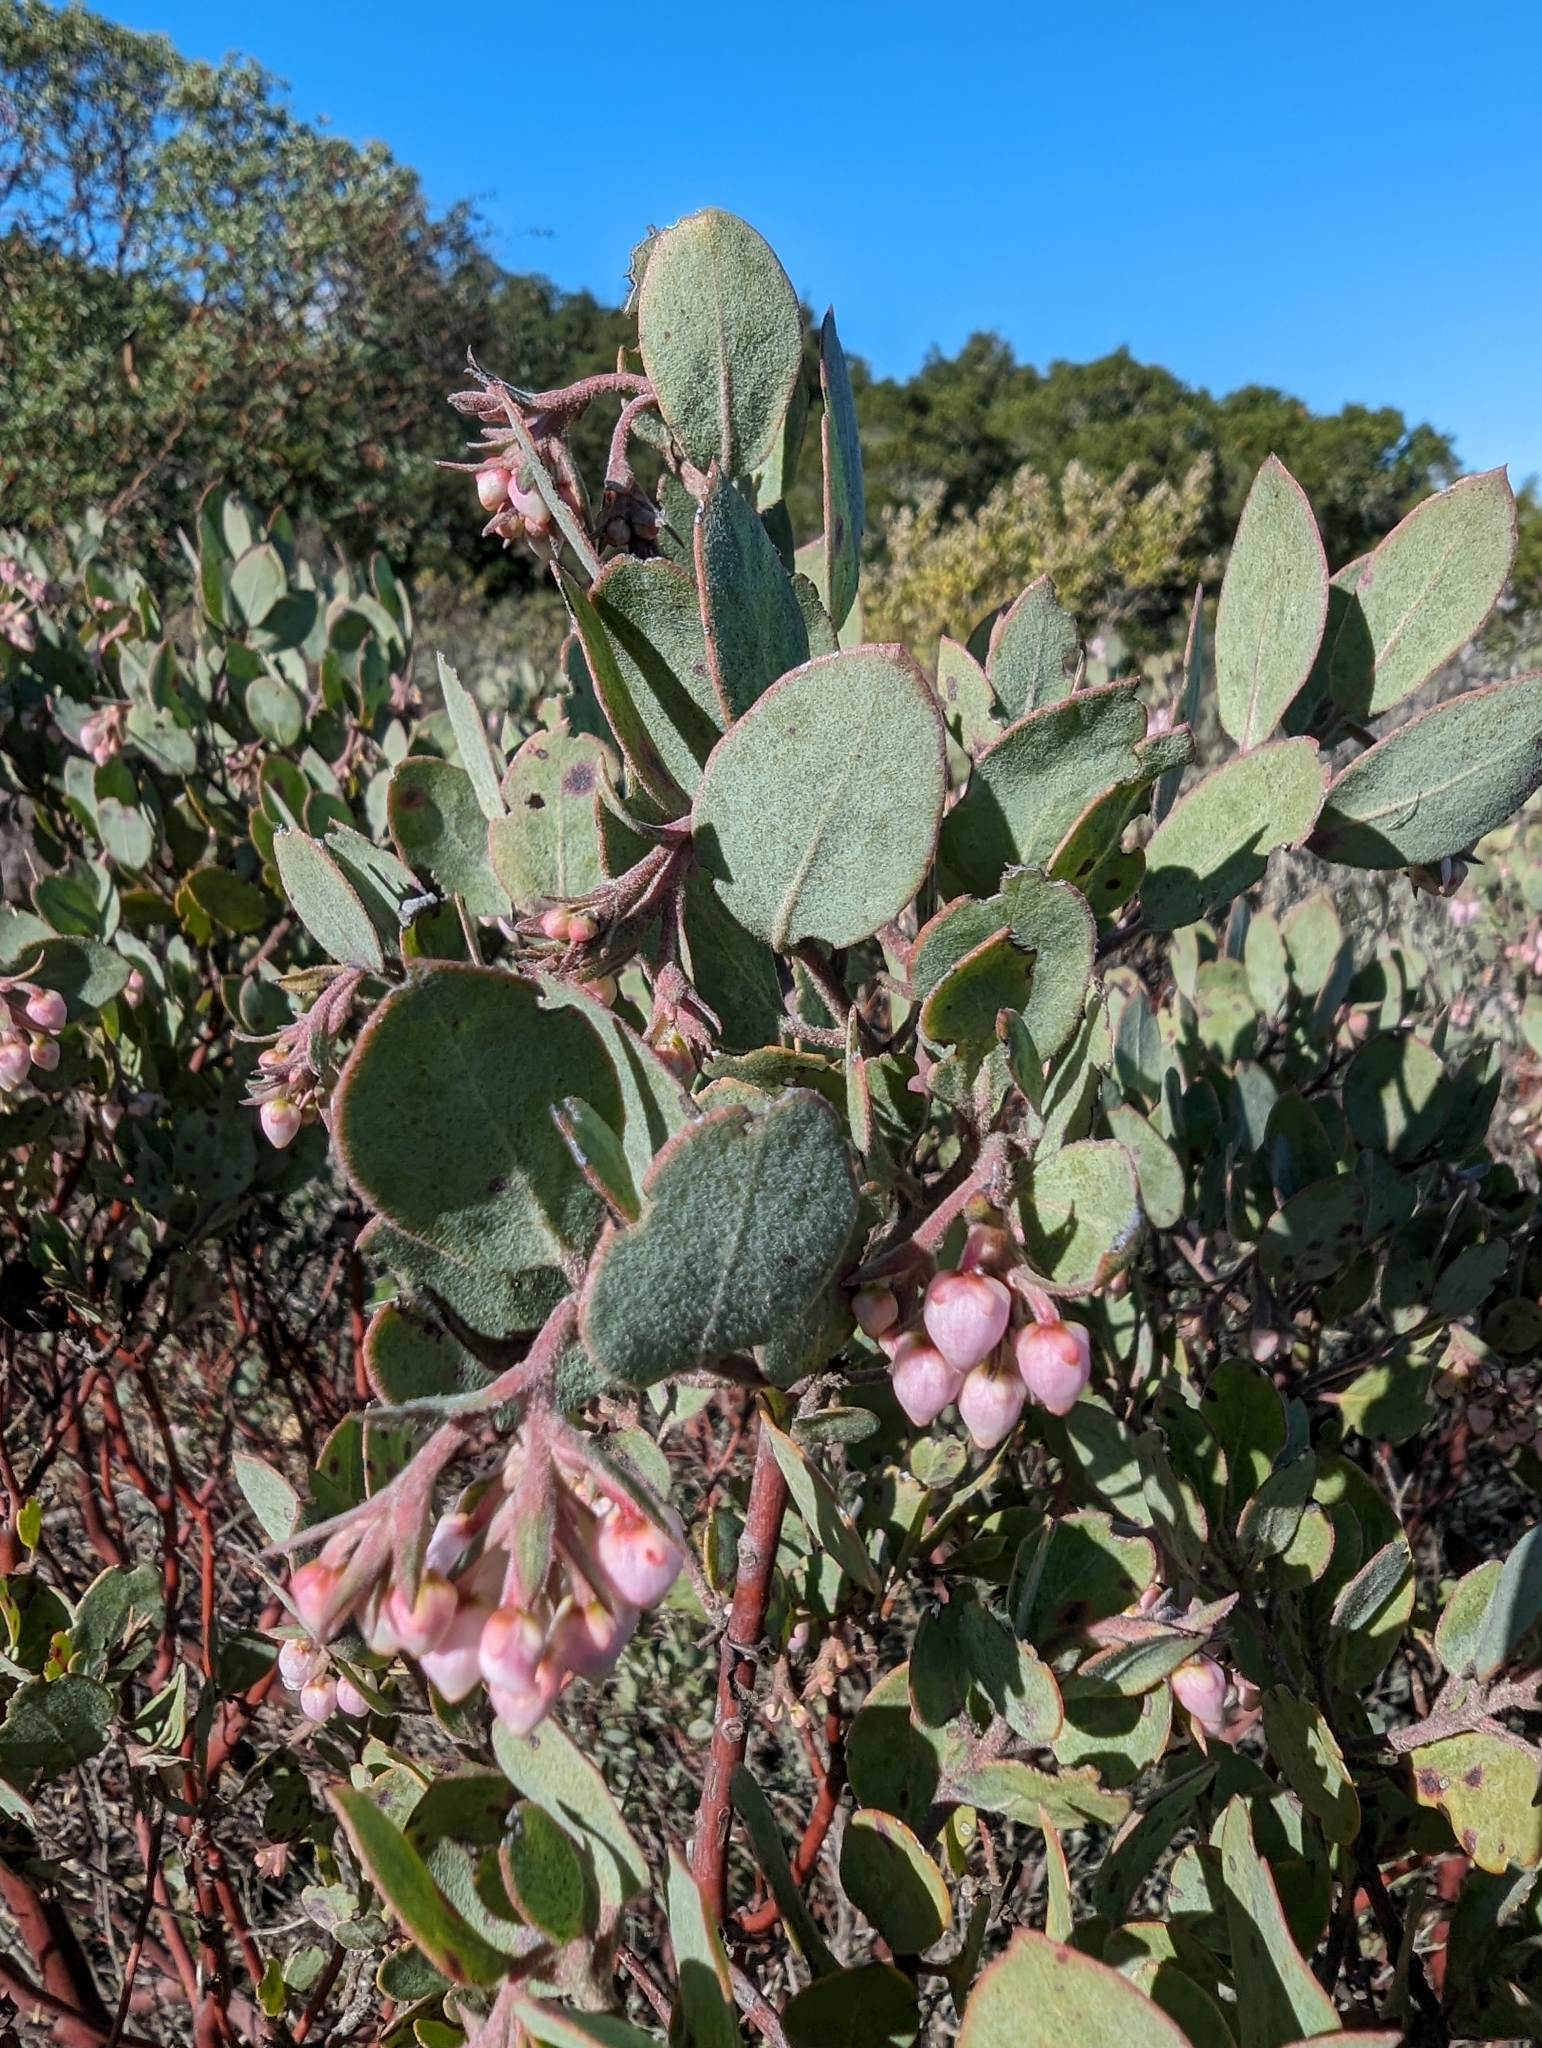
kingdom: Plantae
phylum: Tracheophyta
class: Magnoliopsida
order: Ericales
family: Ericaceae
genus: Arctostaphylos
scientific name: Arctostaphylos canescens
